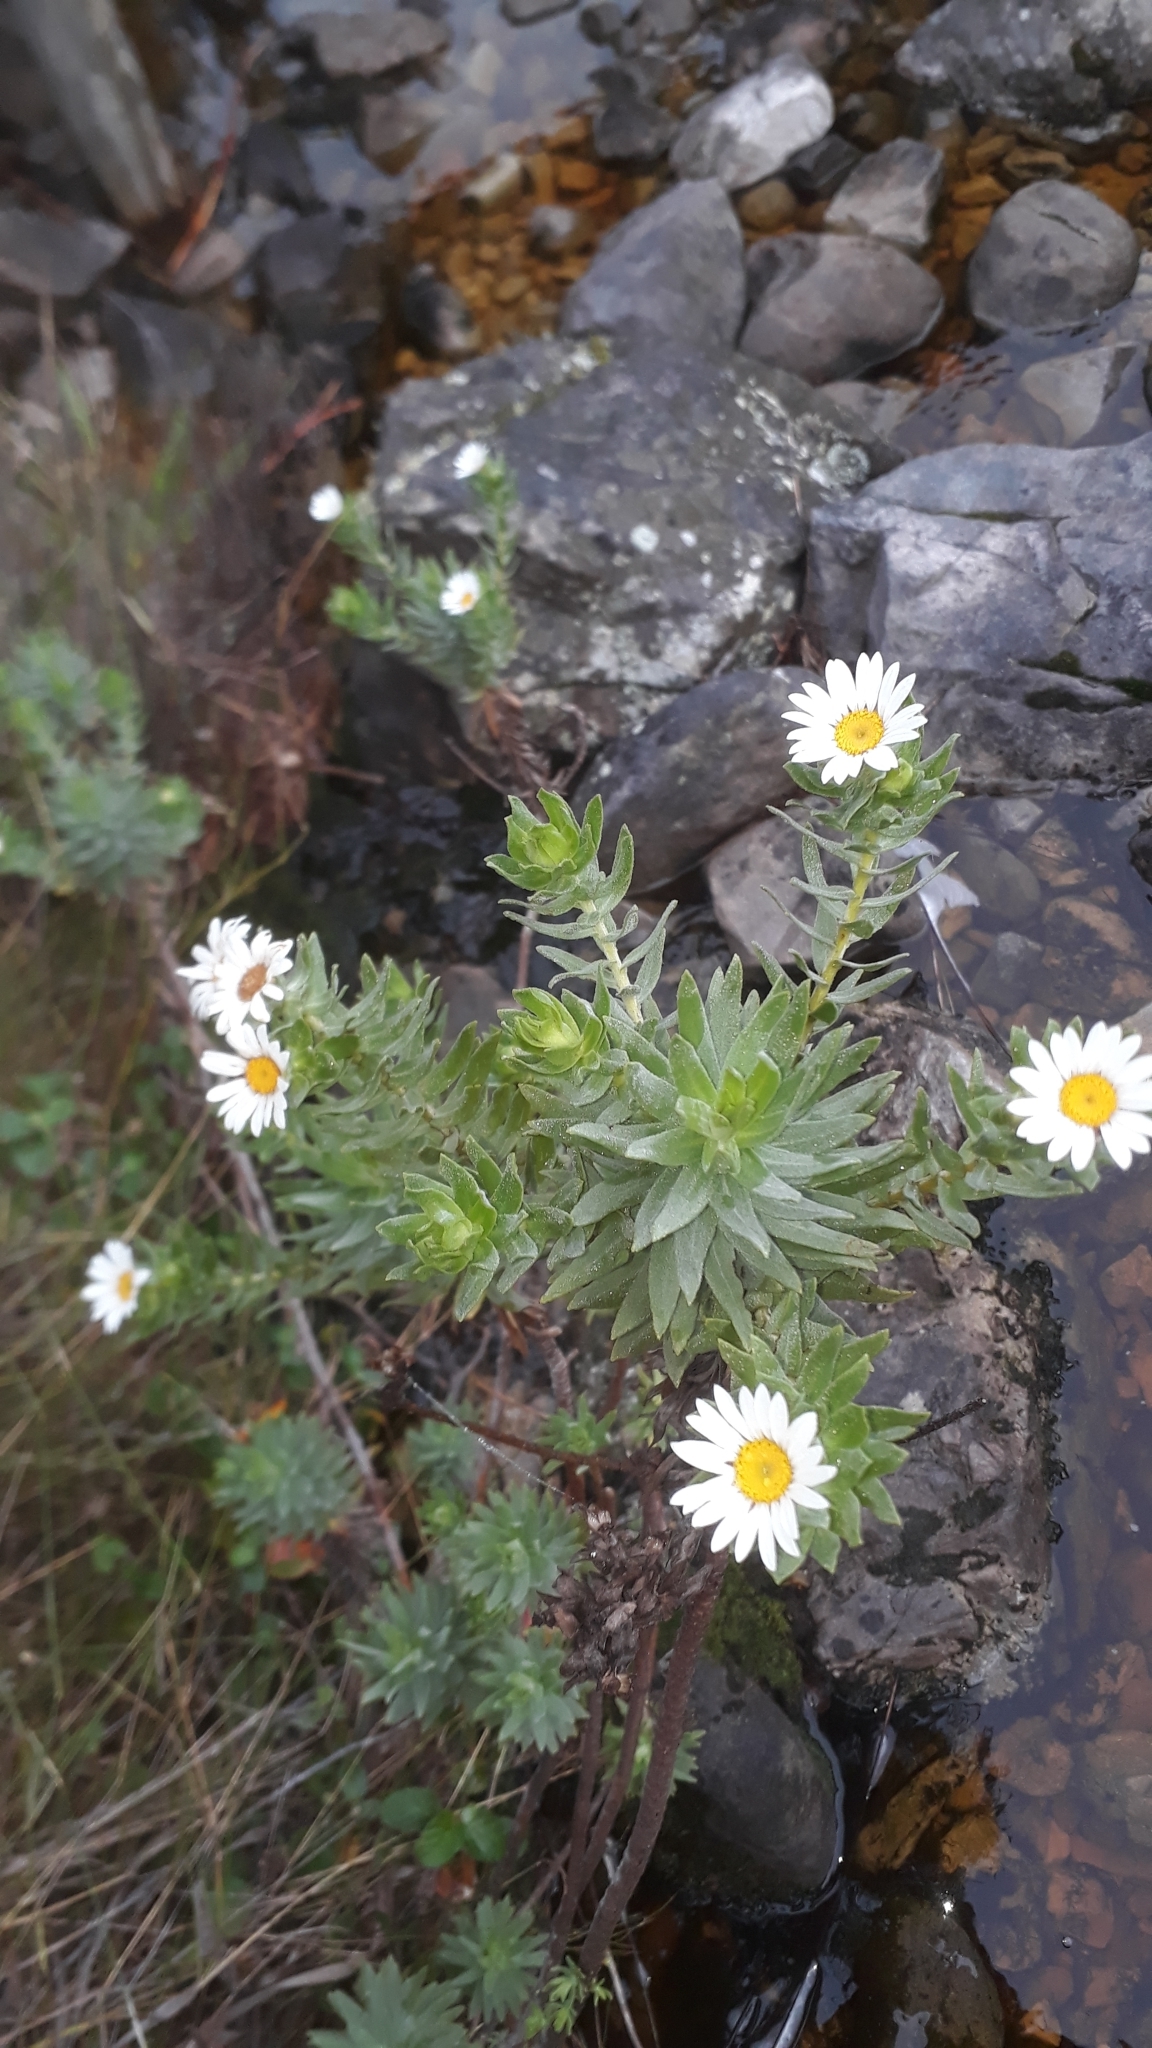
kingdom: Plantae
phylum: Tracheophyta
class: Magnoliopsida
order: Asterales
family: Asteraceae
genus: Osmitopsis
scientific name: Osmitopsis asteriscoides
